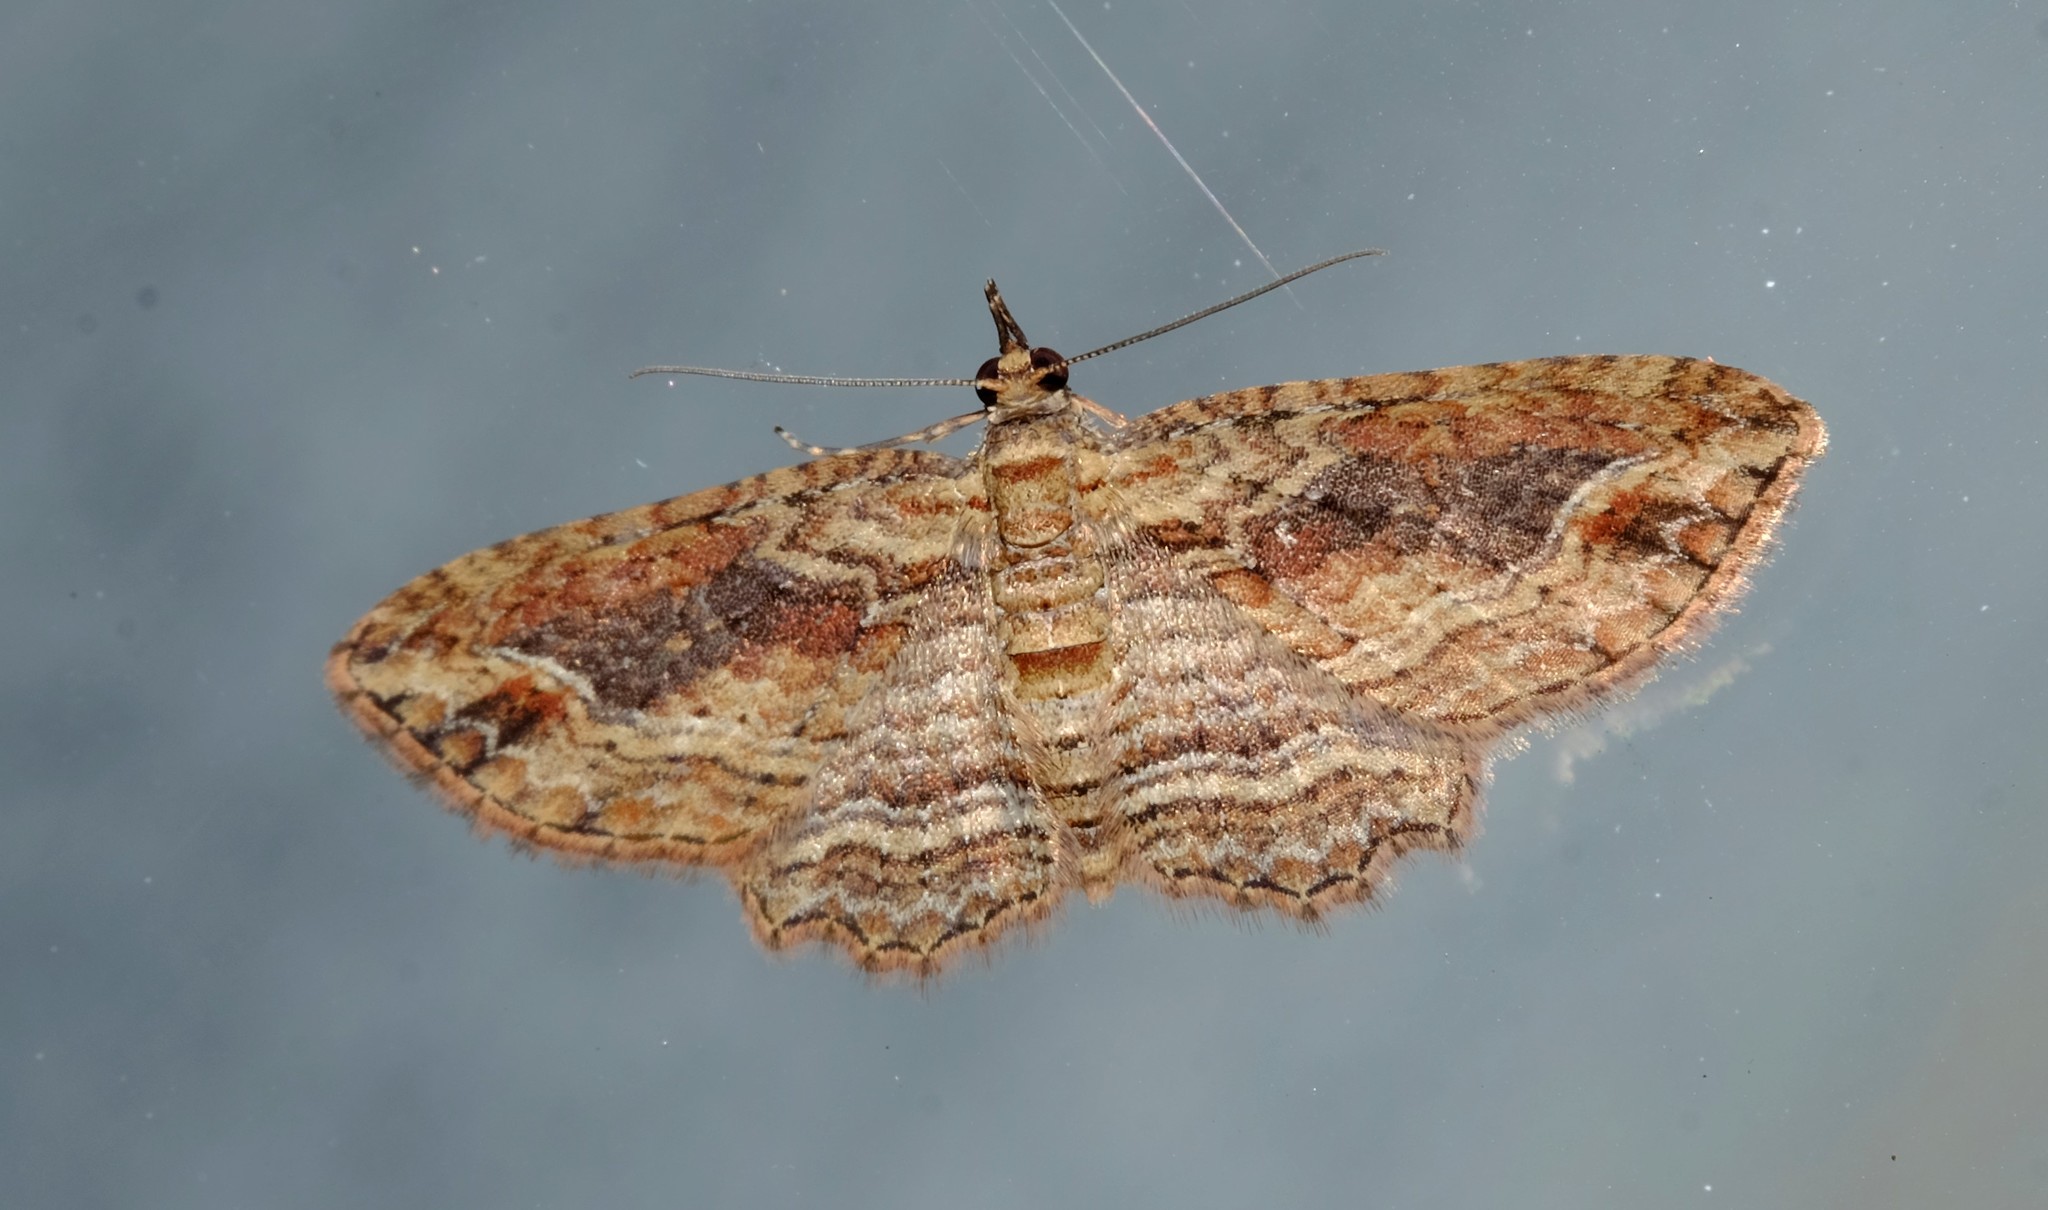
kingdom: Animalia
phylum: Arthropoda
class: Insecta
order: Lepidoptera
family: Geometridae
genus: Chloroclystis
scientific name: Chloroclystis filata
